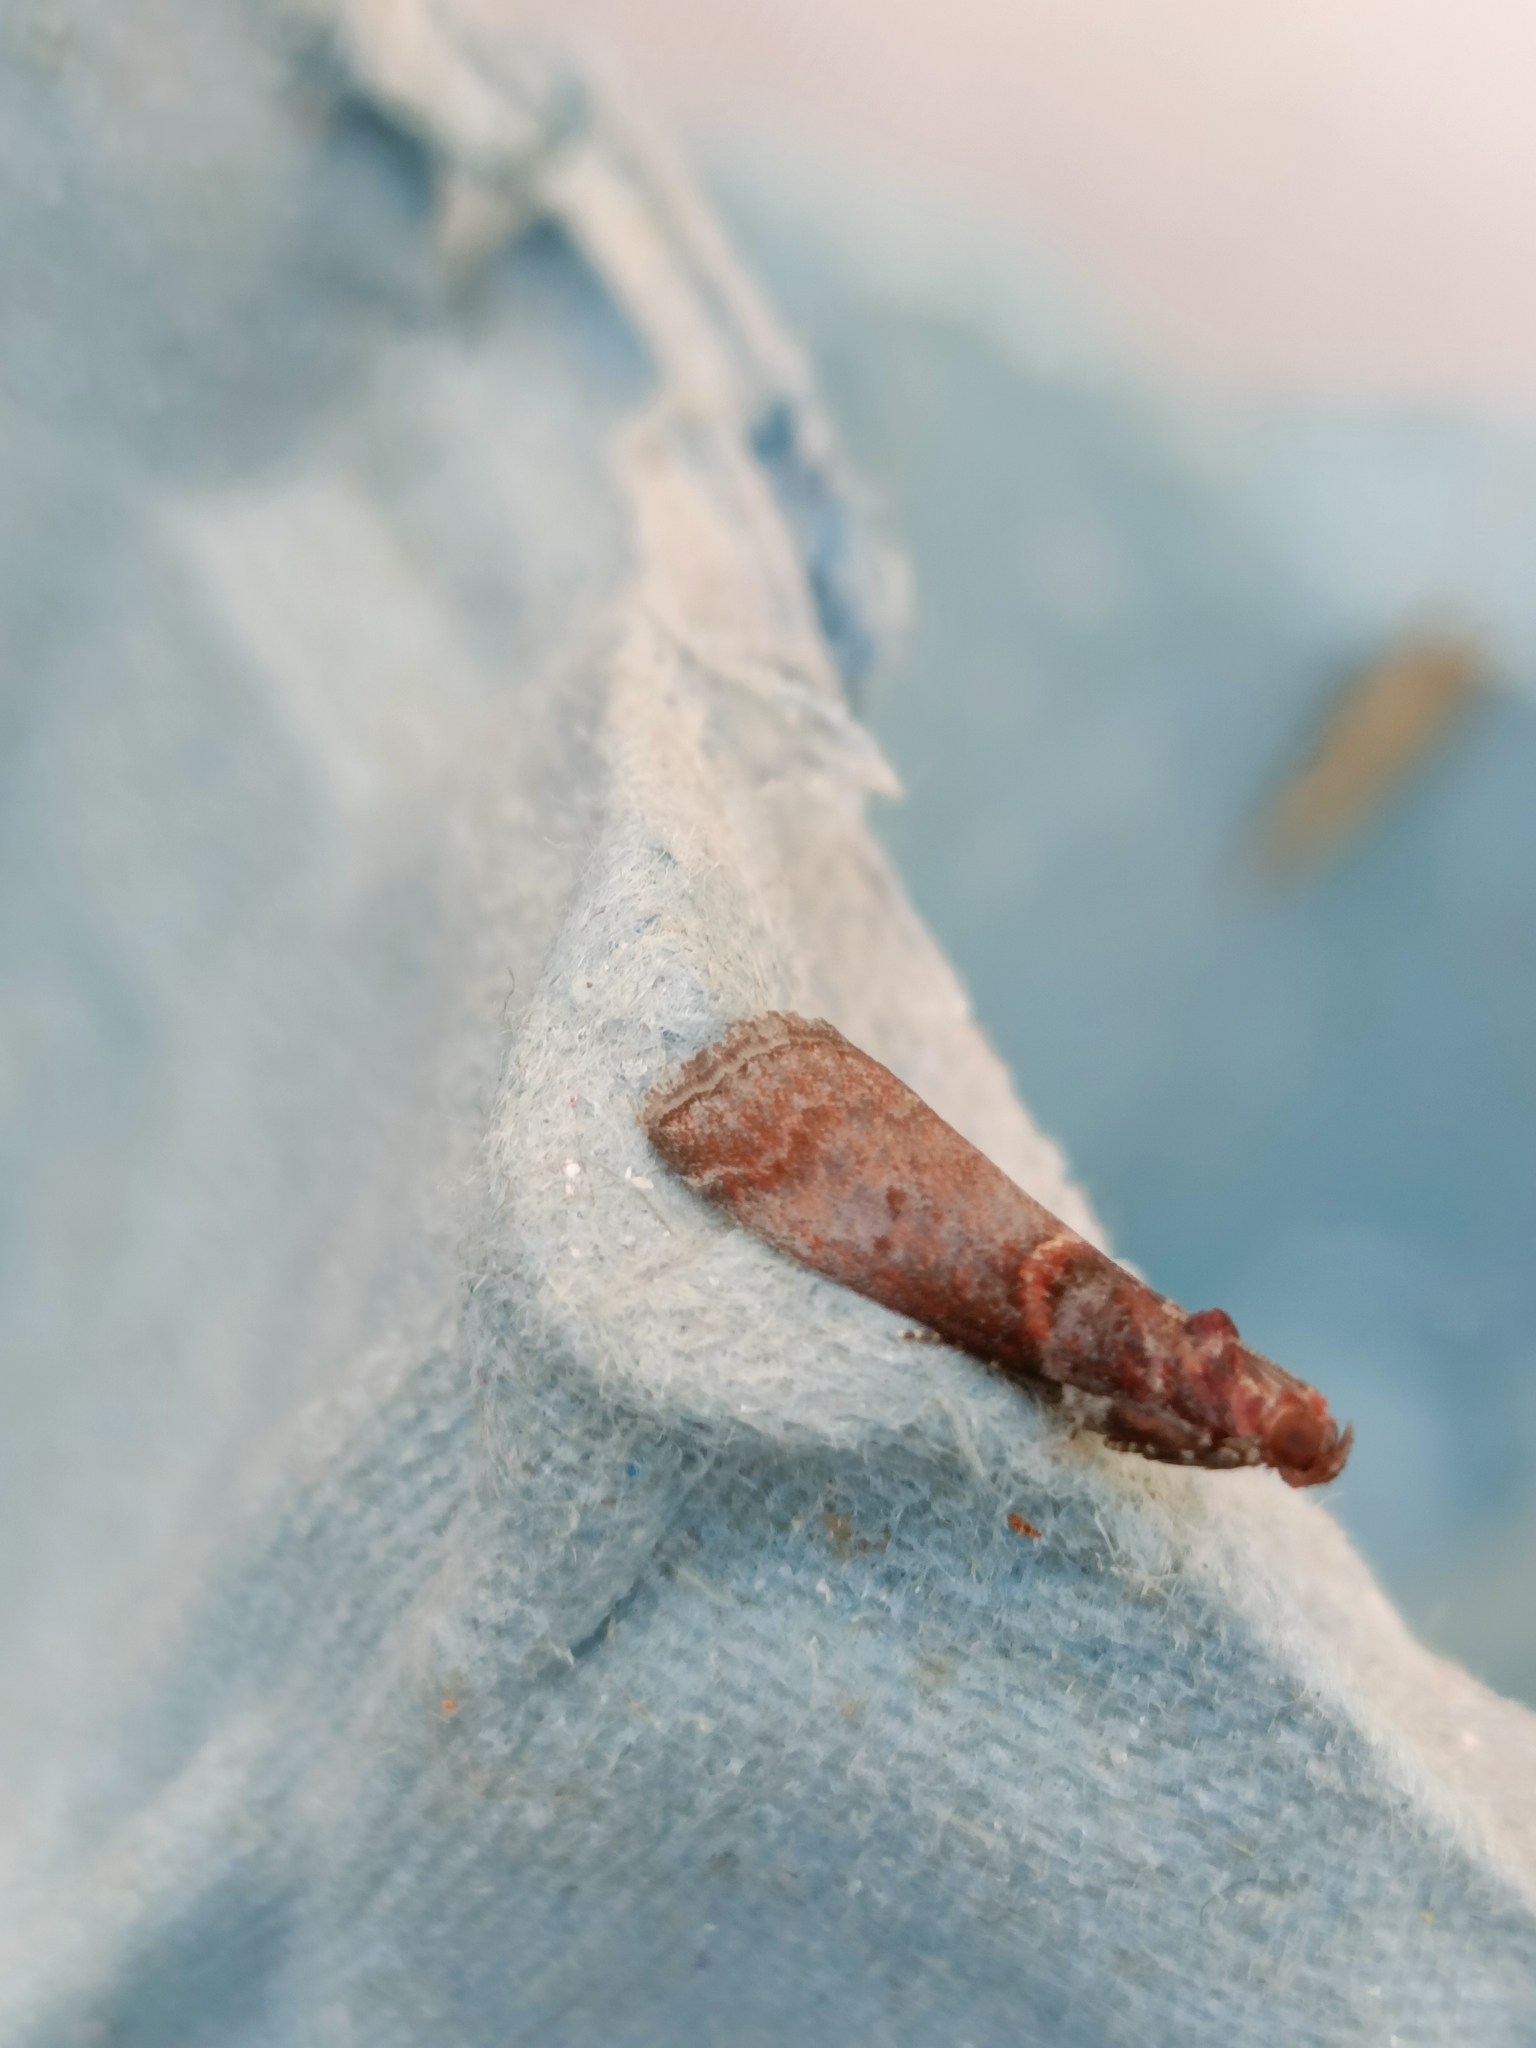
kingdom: Animalia
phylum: Arthropoda
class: Insecta
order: Lepidoptera
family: Pyralidae
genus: Acrobasis
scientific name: Acrobasis advenella
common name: Grey knot-horn
